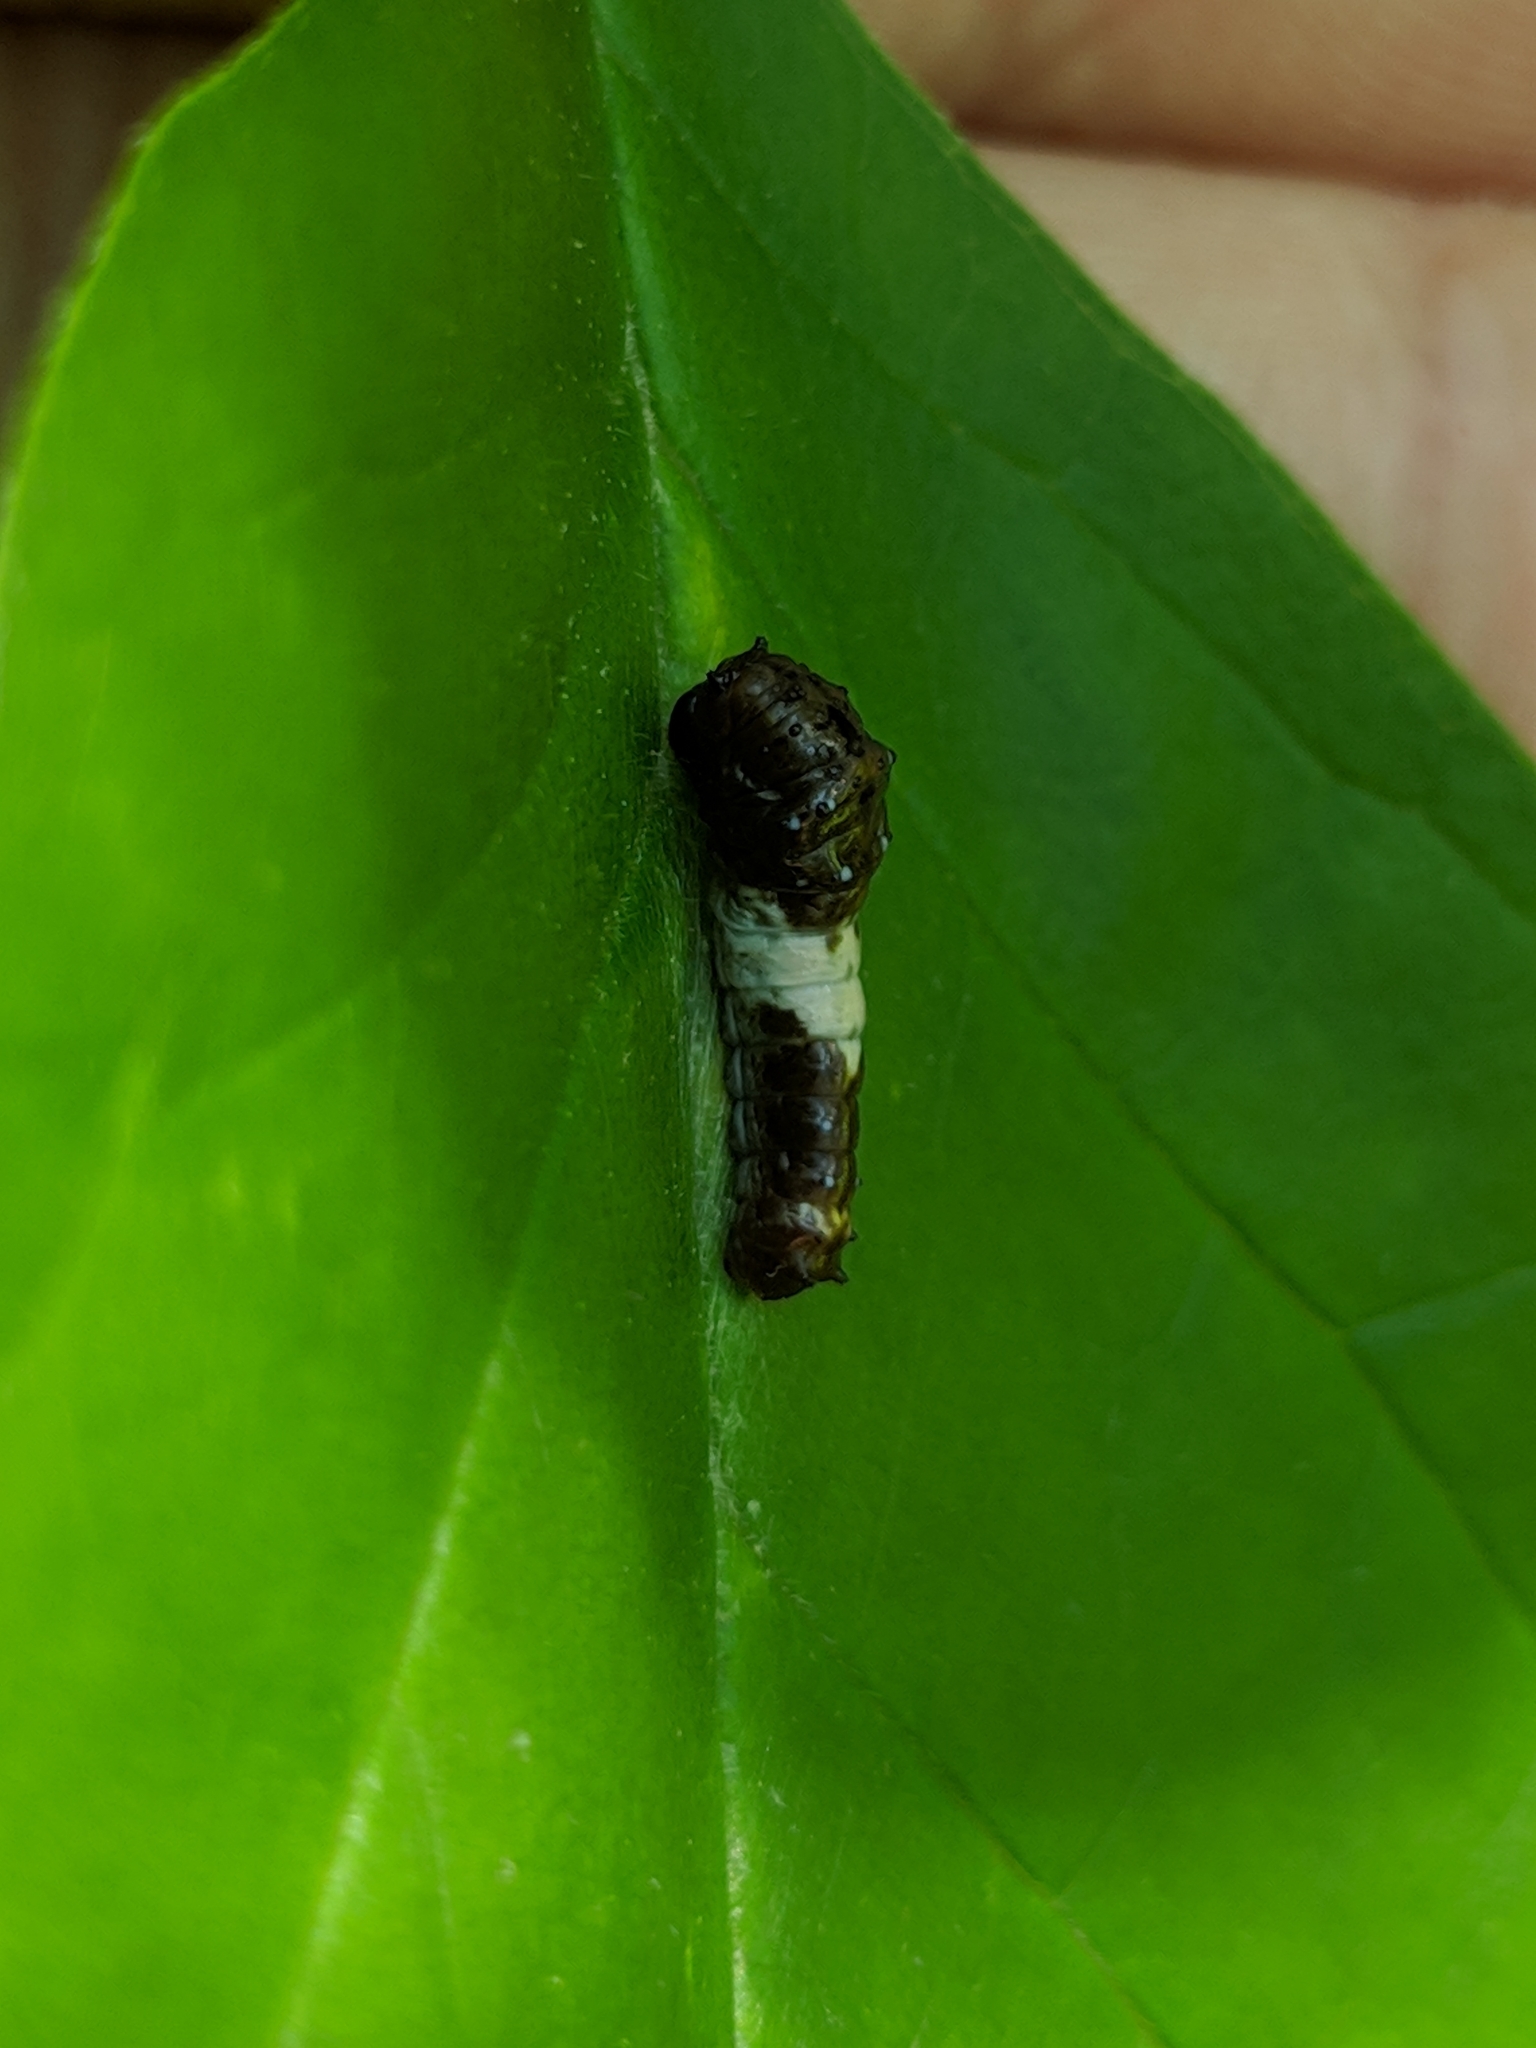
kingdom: Animalia
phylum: Arthropoda
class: Insecta
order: Lepidoptera
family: Papilionidae
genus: Papilio
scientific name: Papilio glaucus
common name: Tiger swallowtail
